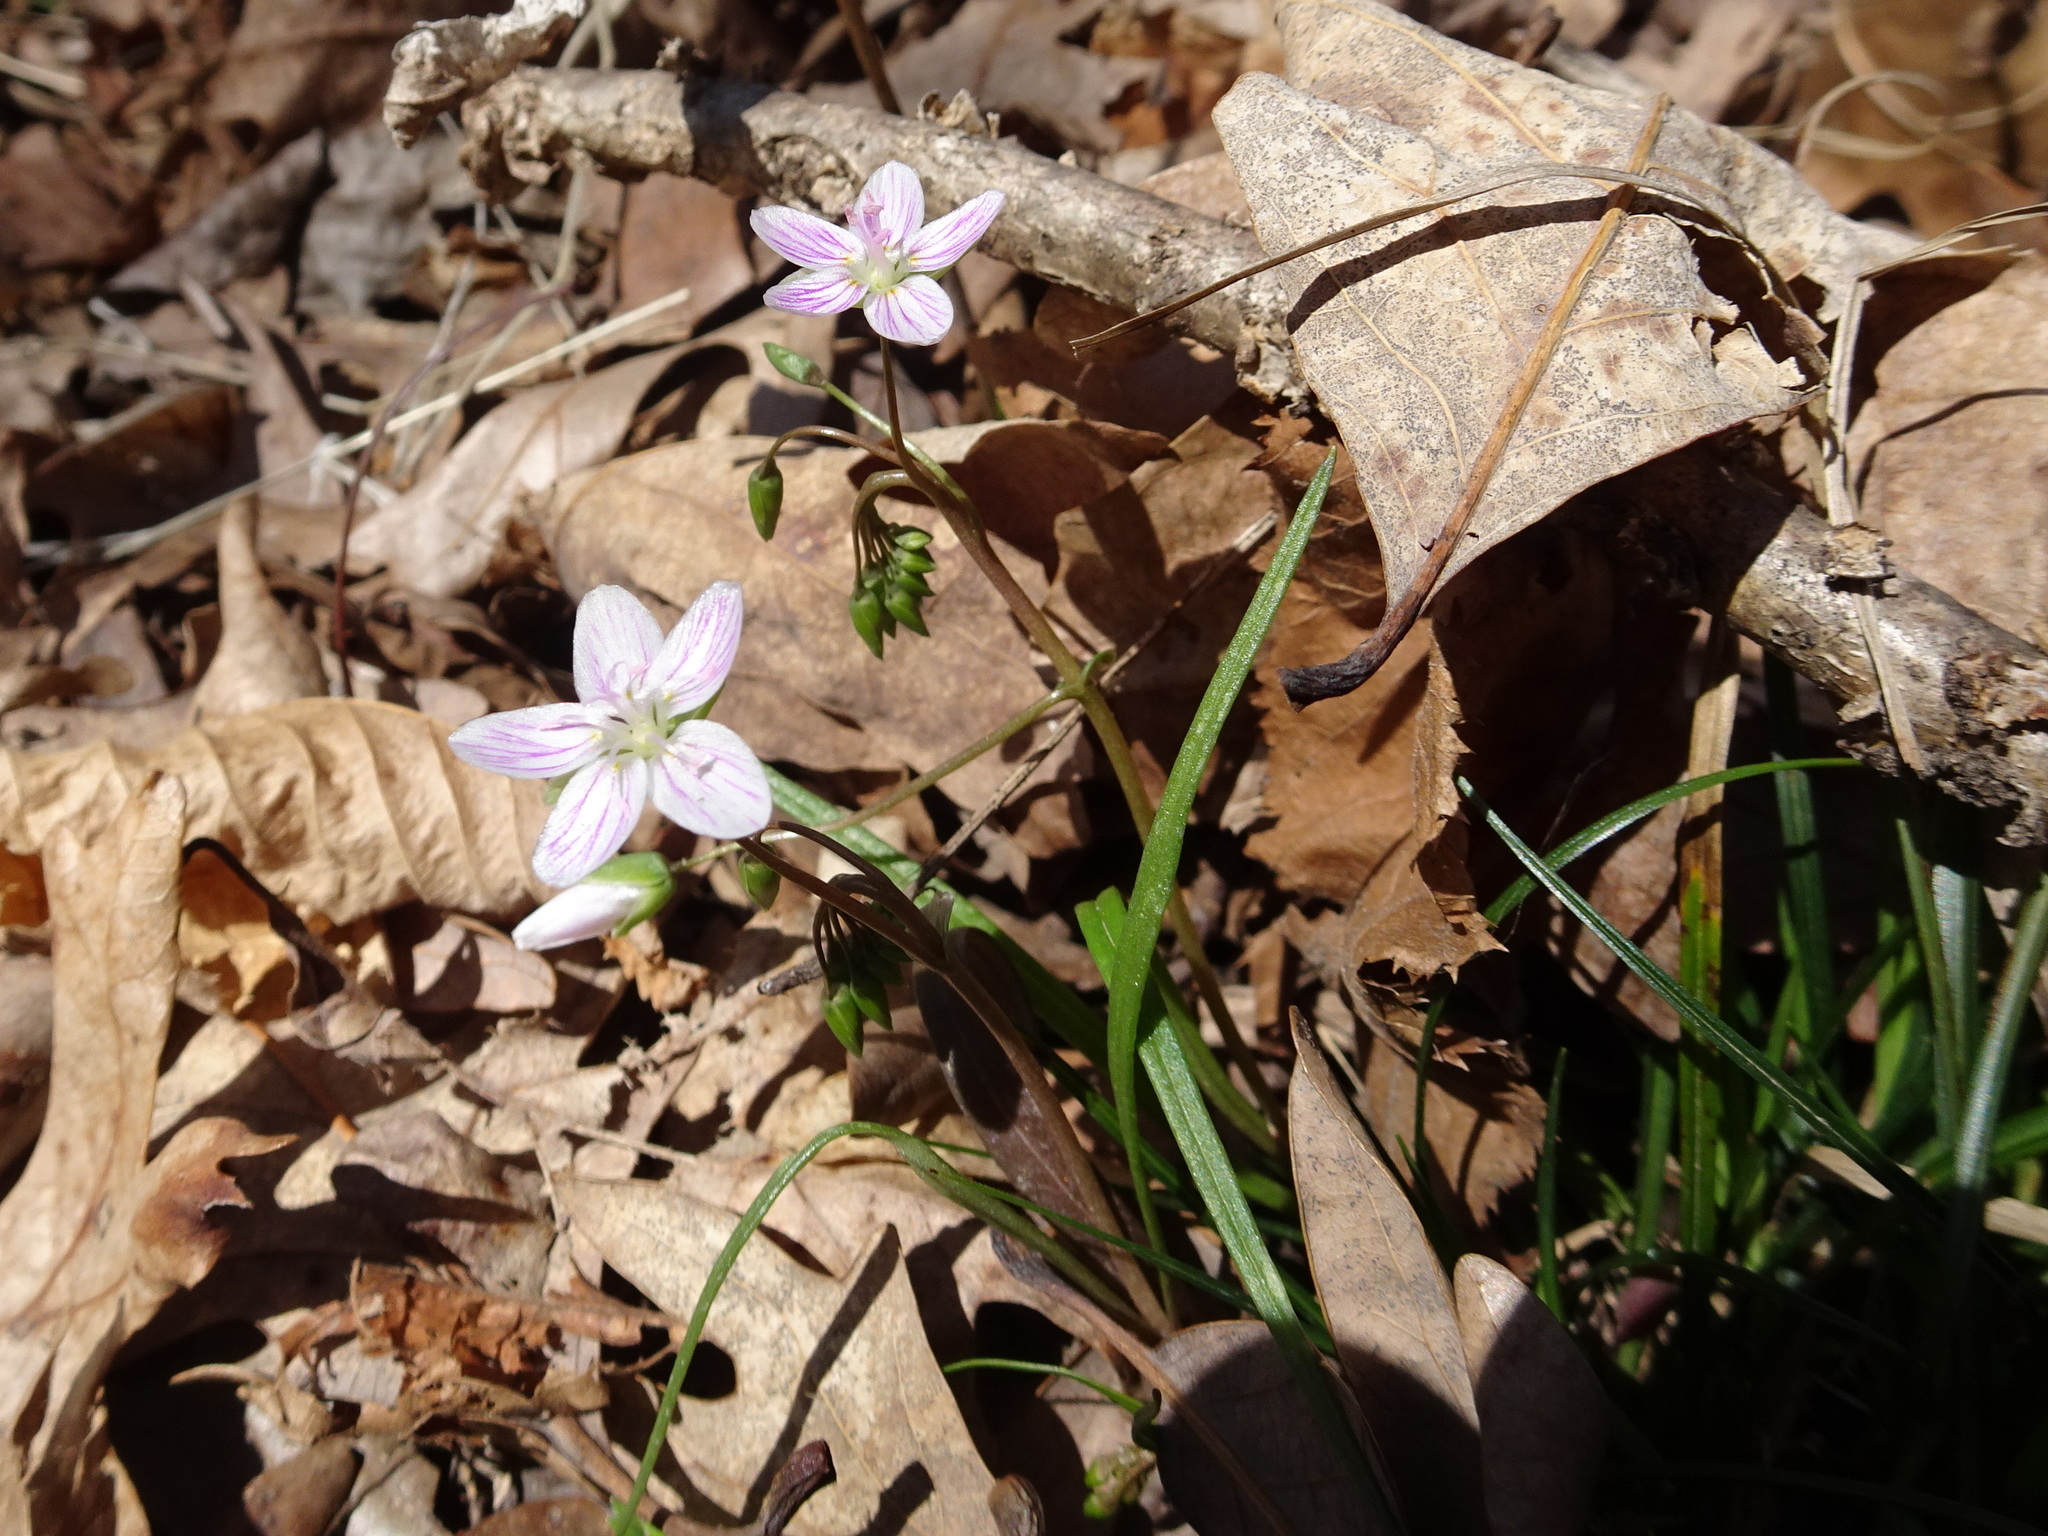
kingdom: Plantae
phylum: Tracheophyta
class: Magnoliopsida
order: Caryophyllales
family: Montiaceae
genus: Claytonia
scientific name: Claytonia virginica
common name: Virginia springbeauty
